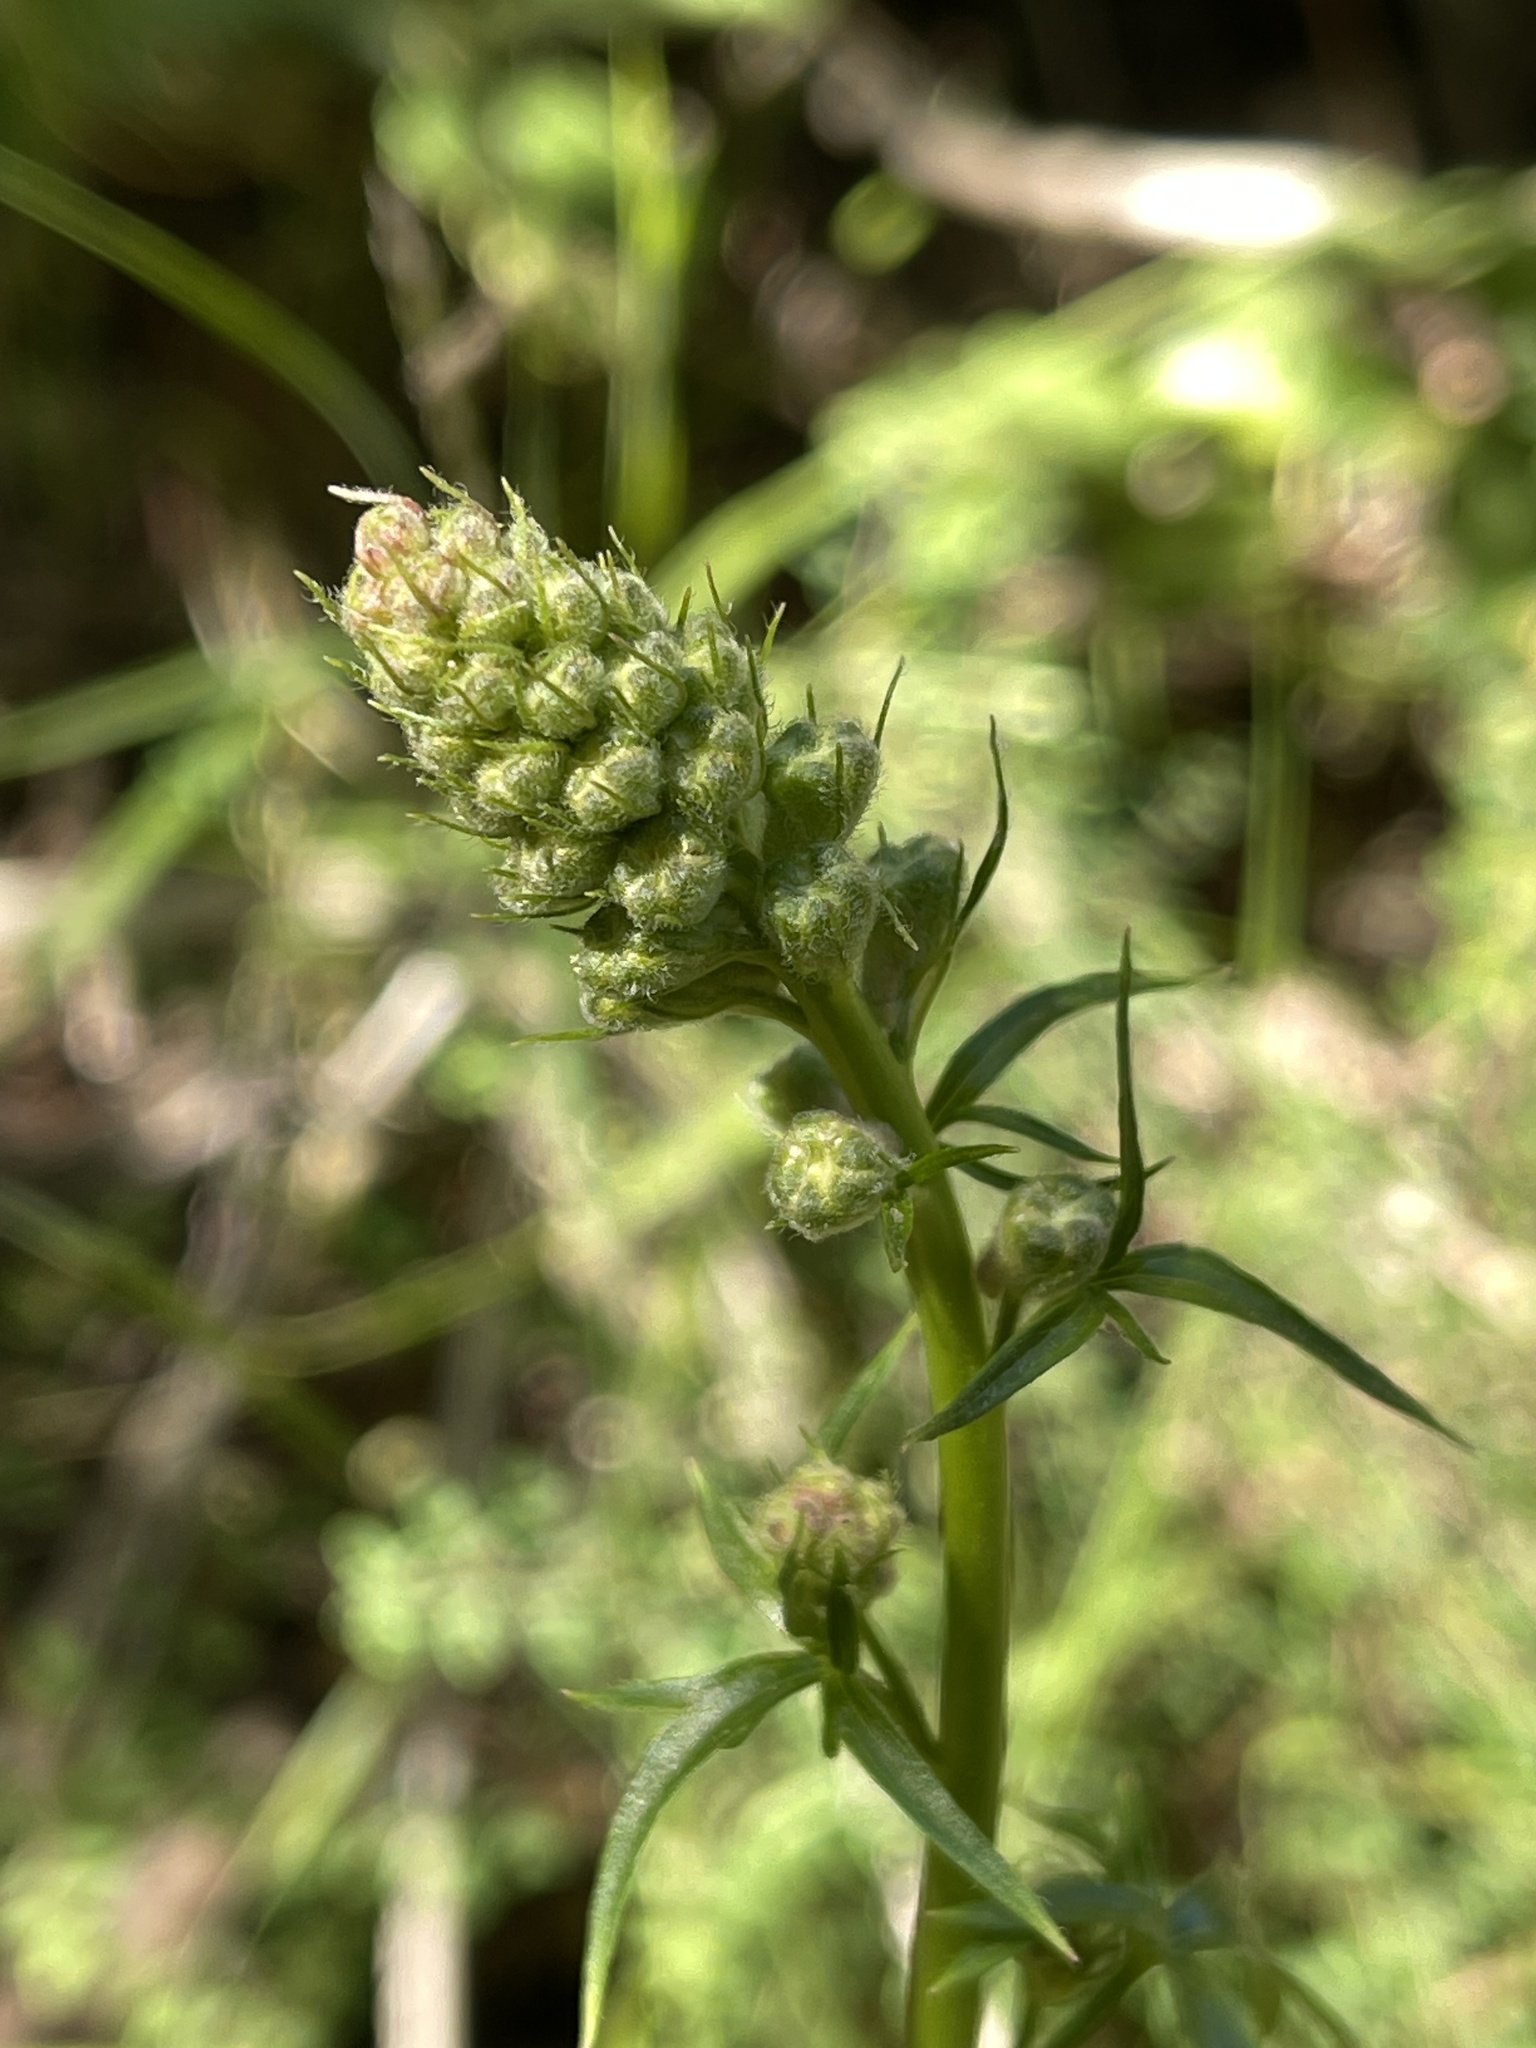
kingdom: Plantae
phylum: Tracheophyta
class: Magnoliopsida
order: Ranunculales
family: Ranunculaceae
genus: Delphinium
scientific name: Delphinium californicum
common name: California larkspur
